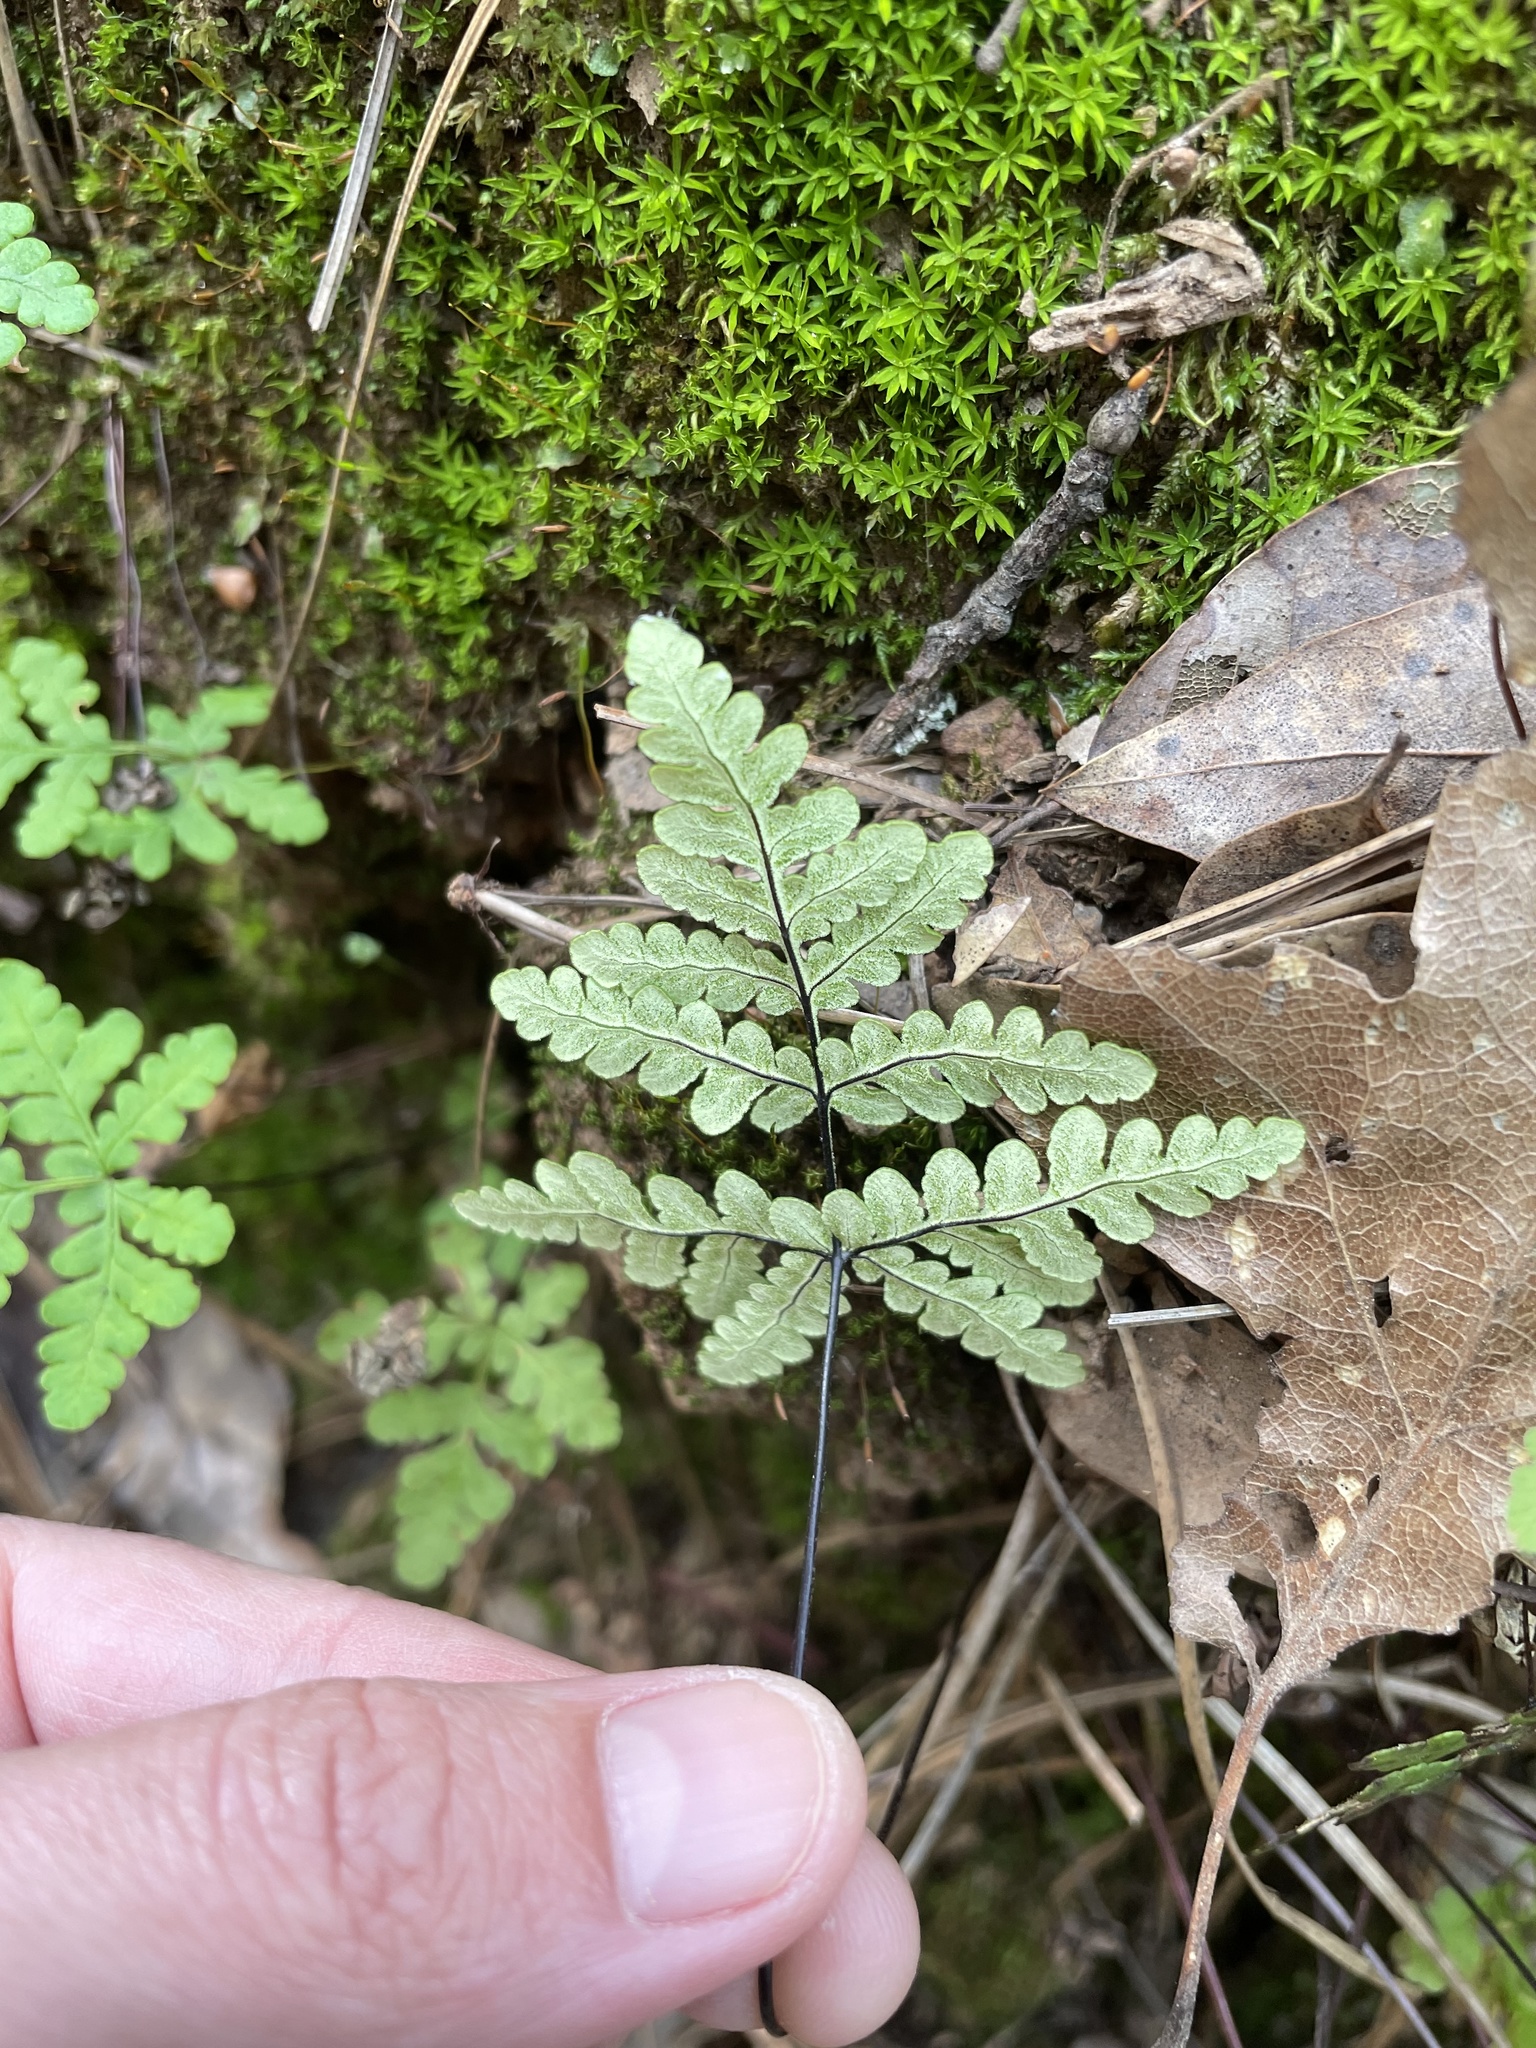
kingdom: Plantae
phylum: Tracheophyta
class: Polypodiopsida
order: Polypodiales
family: Pteridaceae
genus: Pentagramma
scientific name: Pentagramma triangularis
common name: Gold fern
